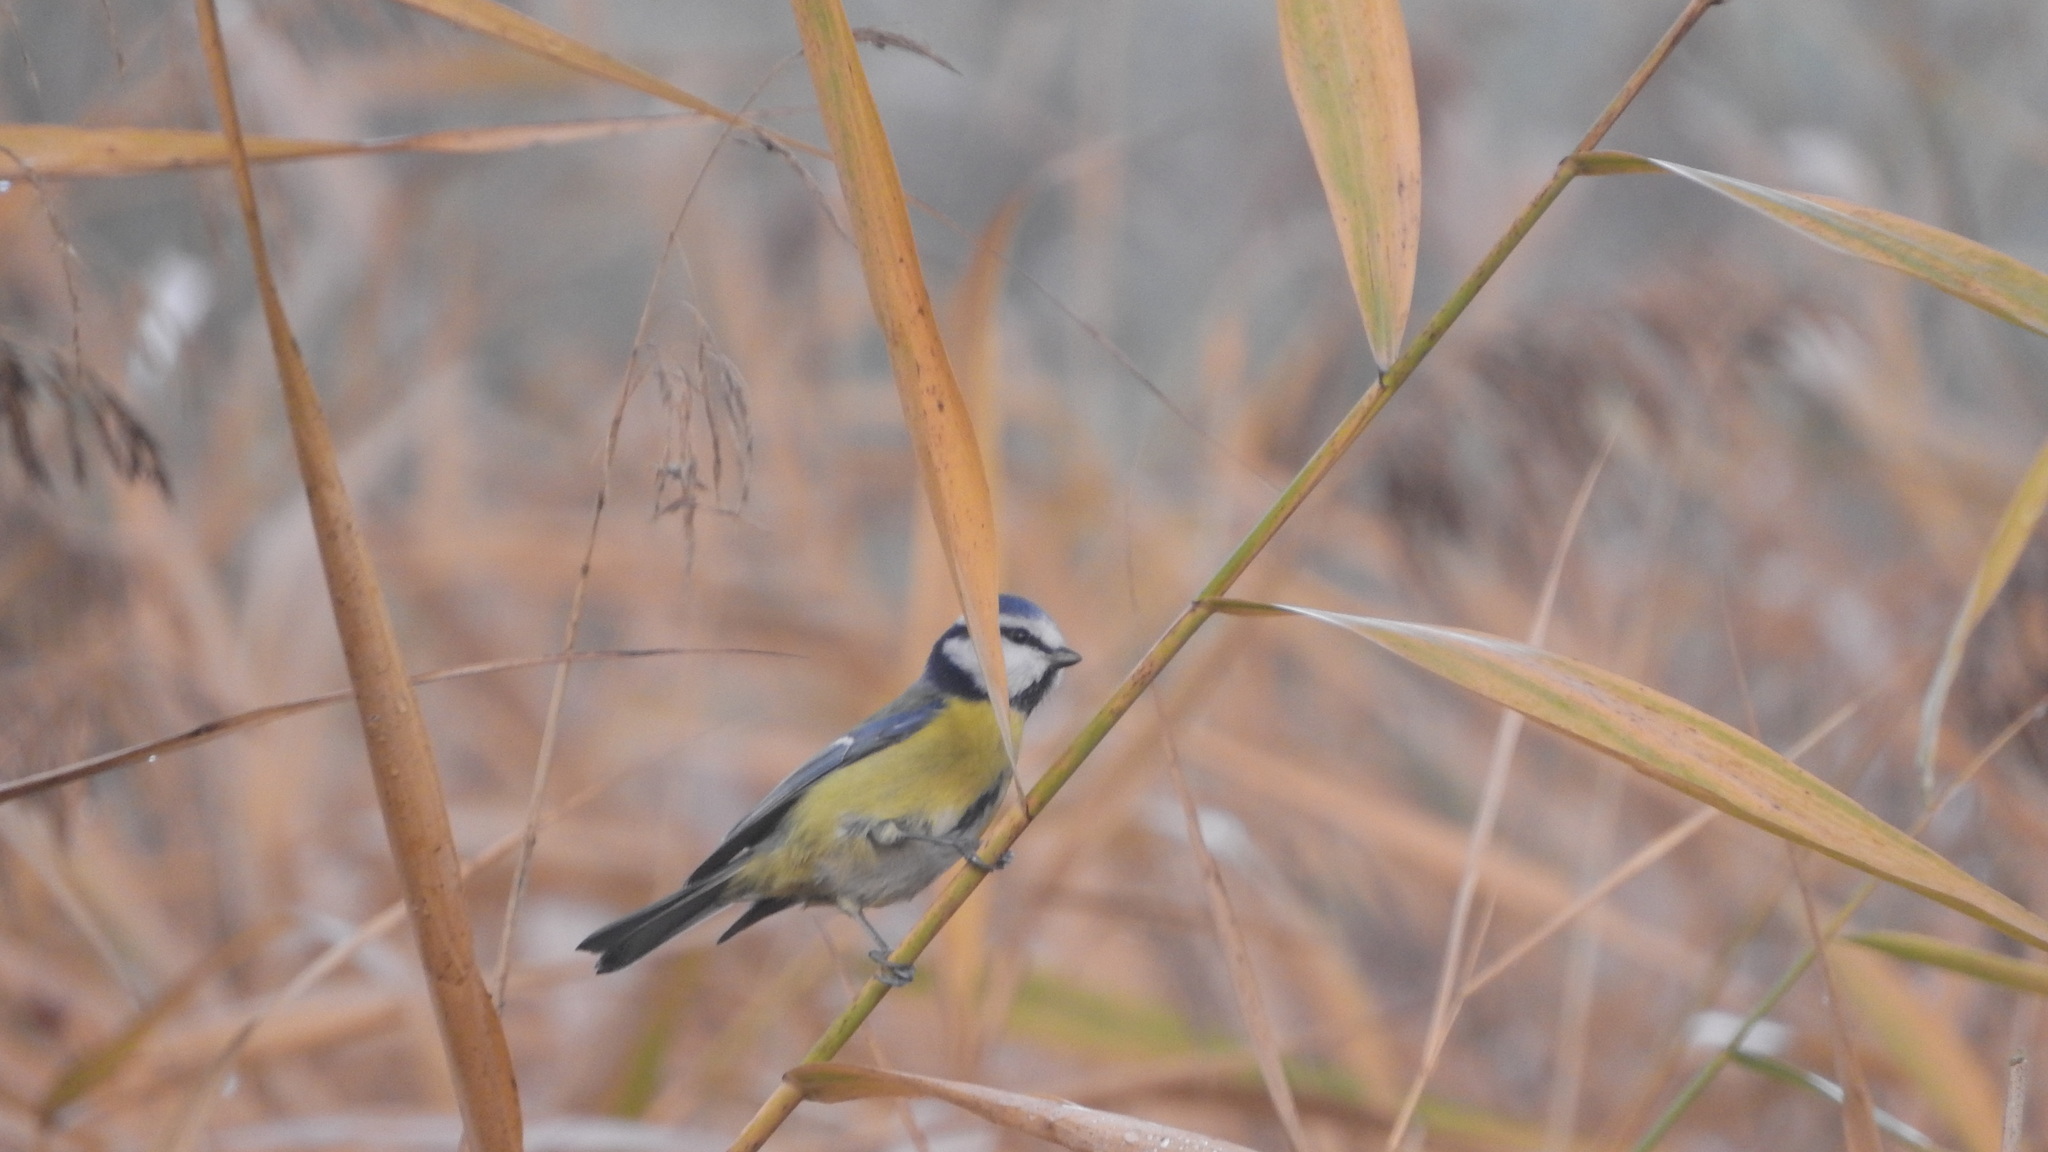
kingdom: Animalia
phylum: Chordata
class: Aves
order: Passeriformes
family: Paridae
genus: Cyanistes
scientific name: Cyanistes caeruleus
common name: Eurasian blue tit
